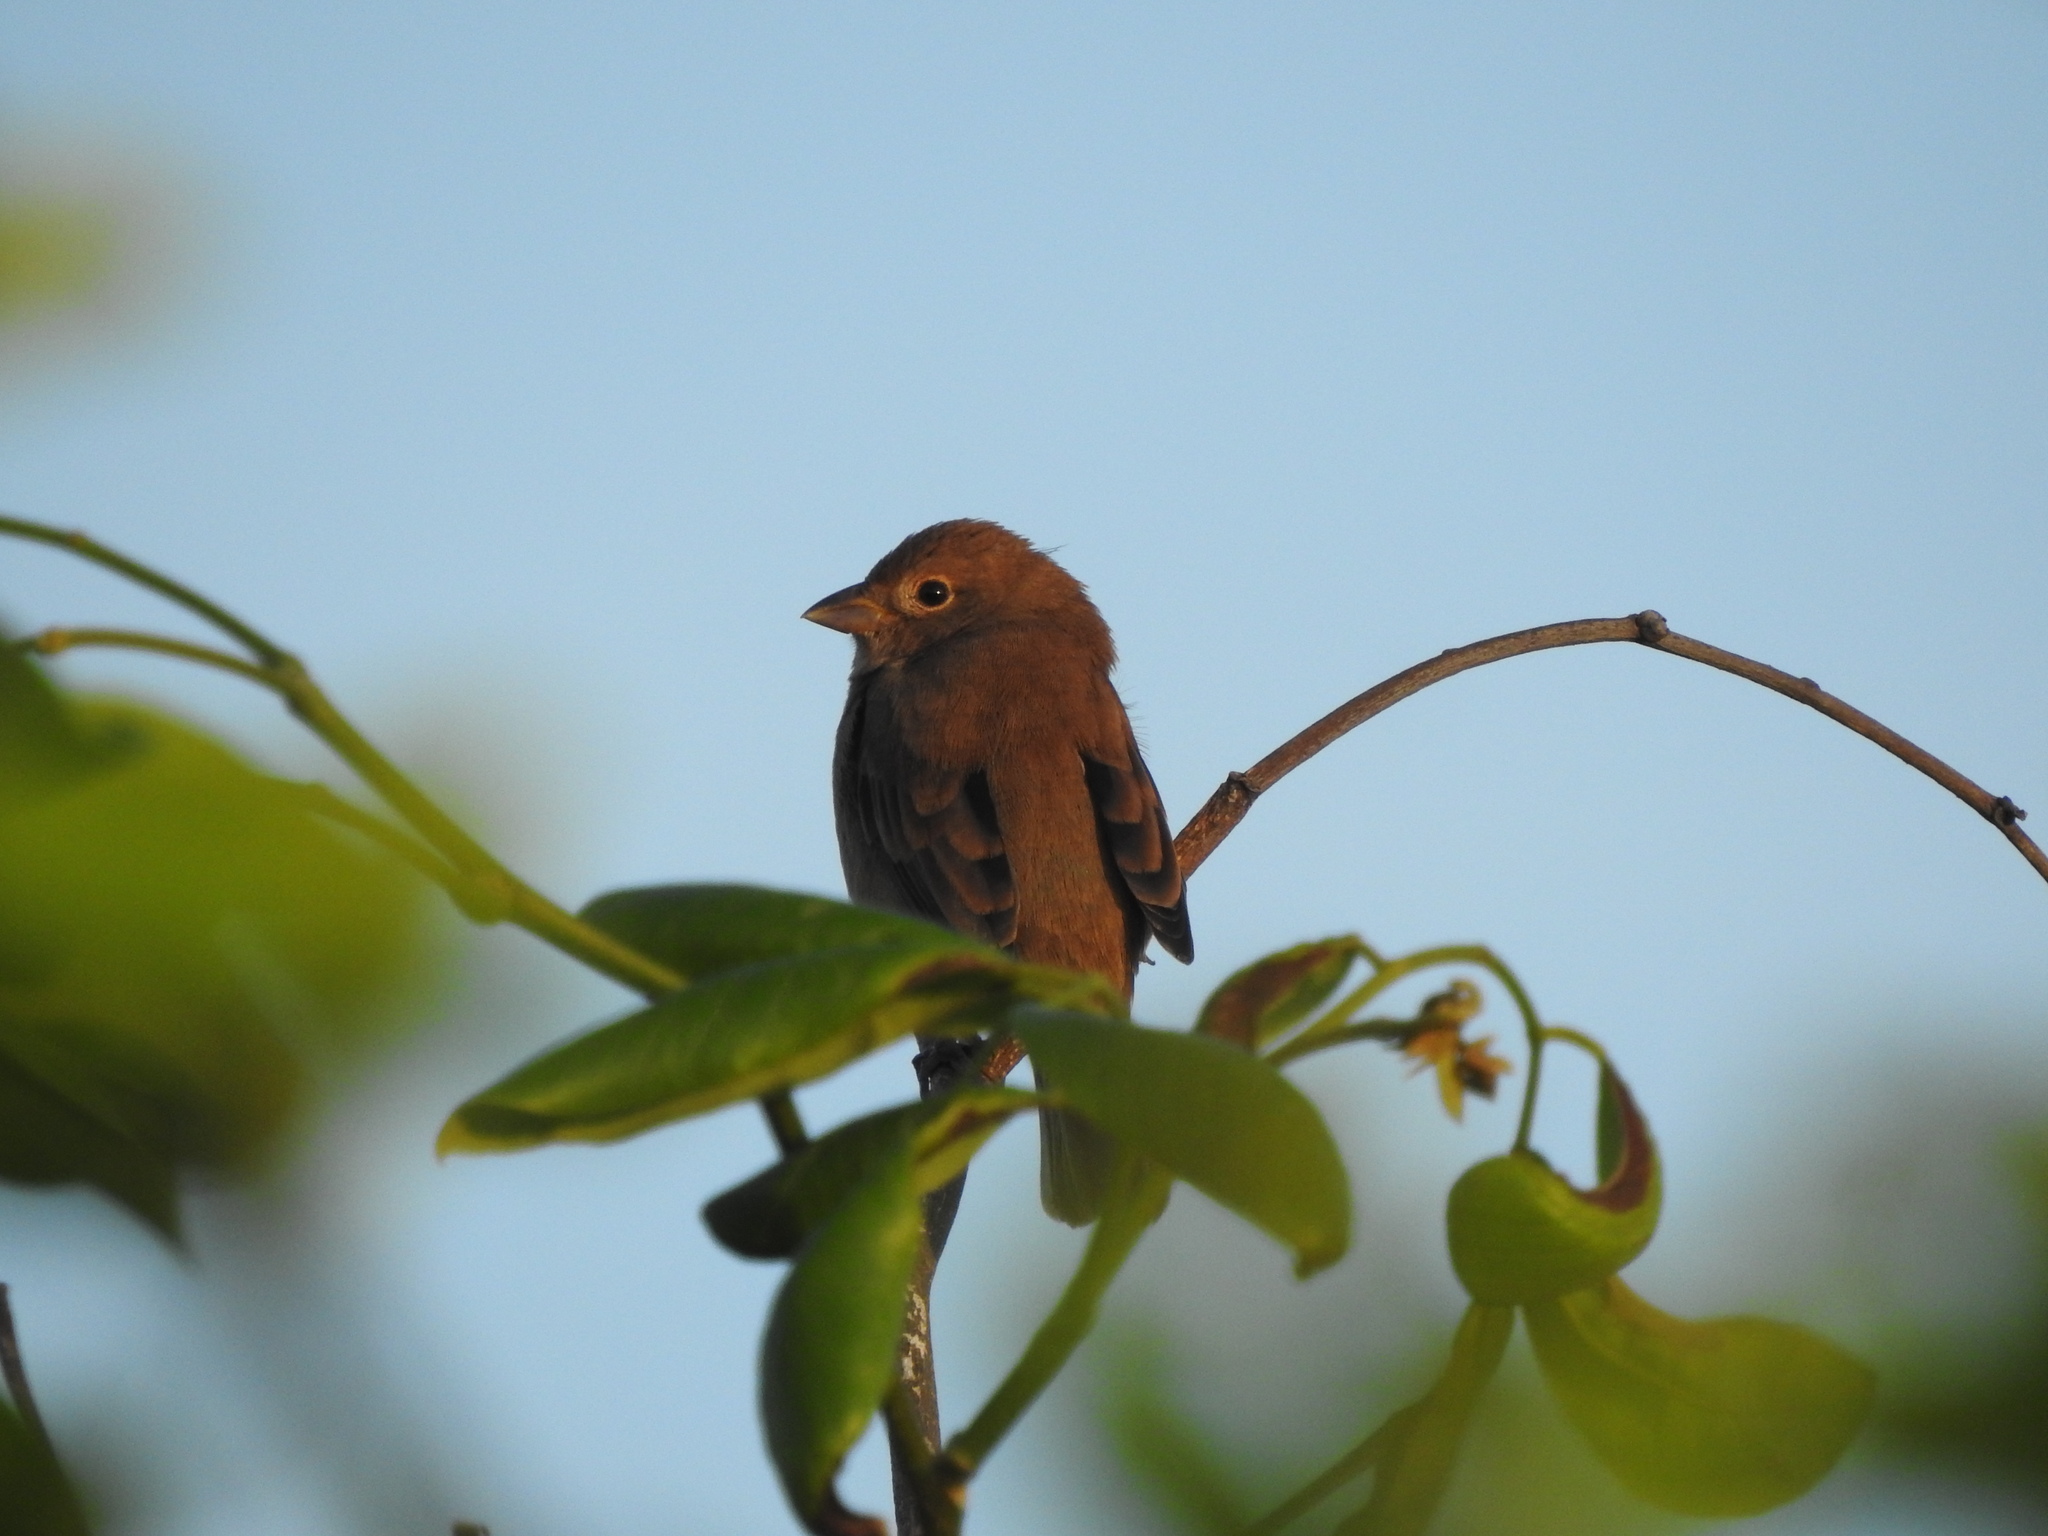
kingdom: Animalia
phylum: Chordata
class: Aves
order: Passeriformes
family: Cardinalidae
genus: Passerina
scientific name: Passerina cyanea
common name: Indigo bunting
